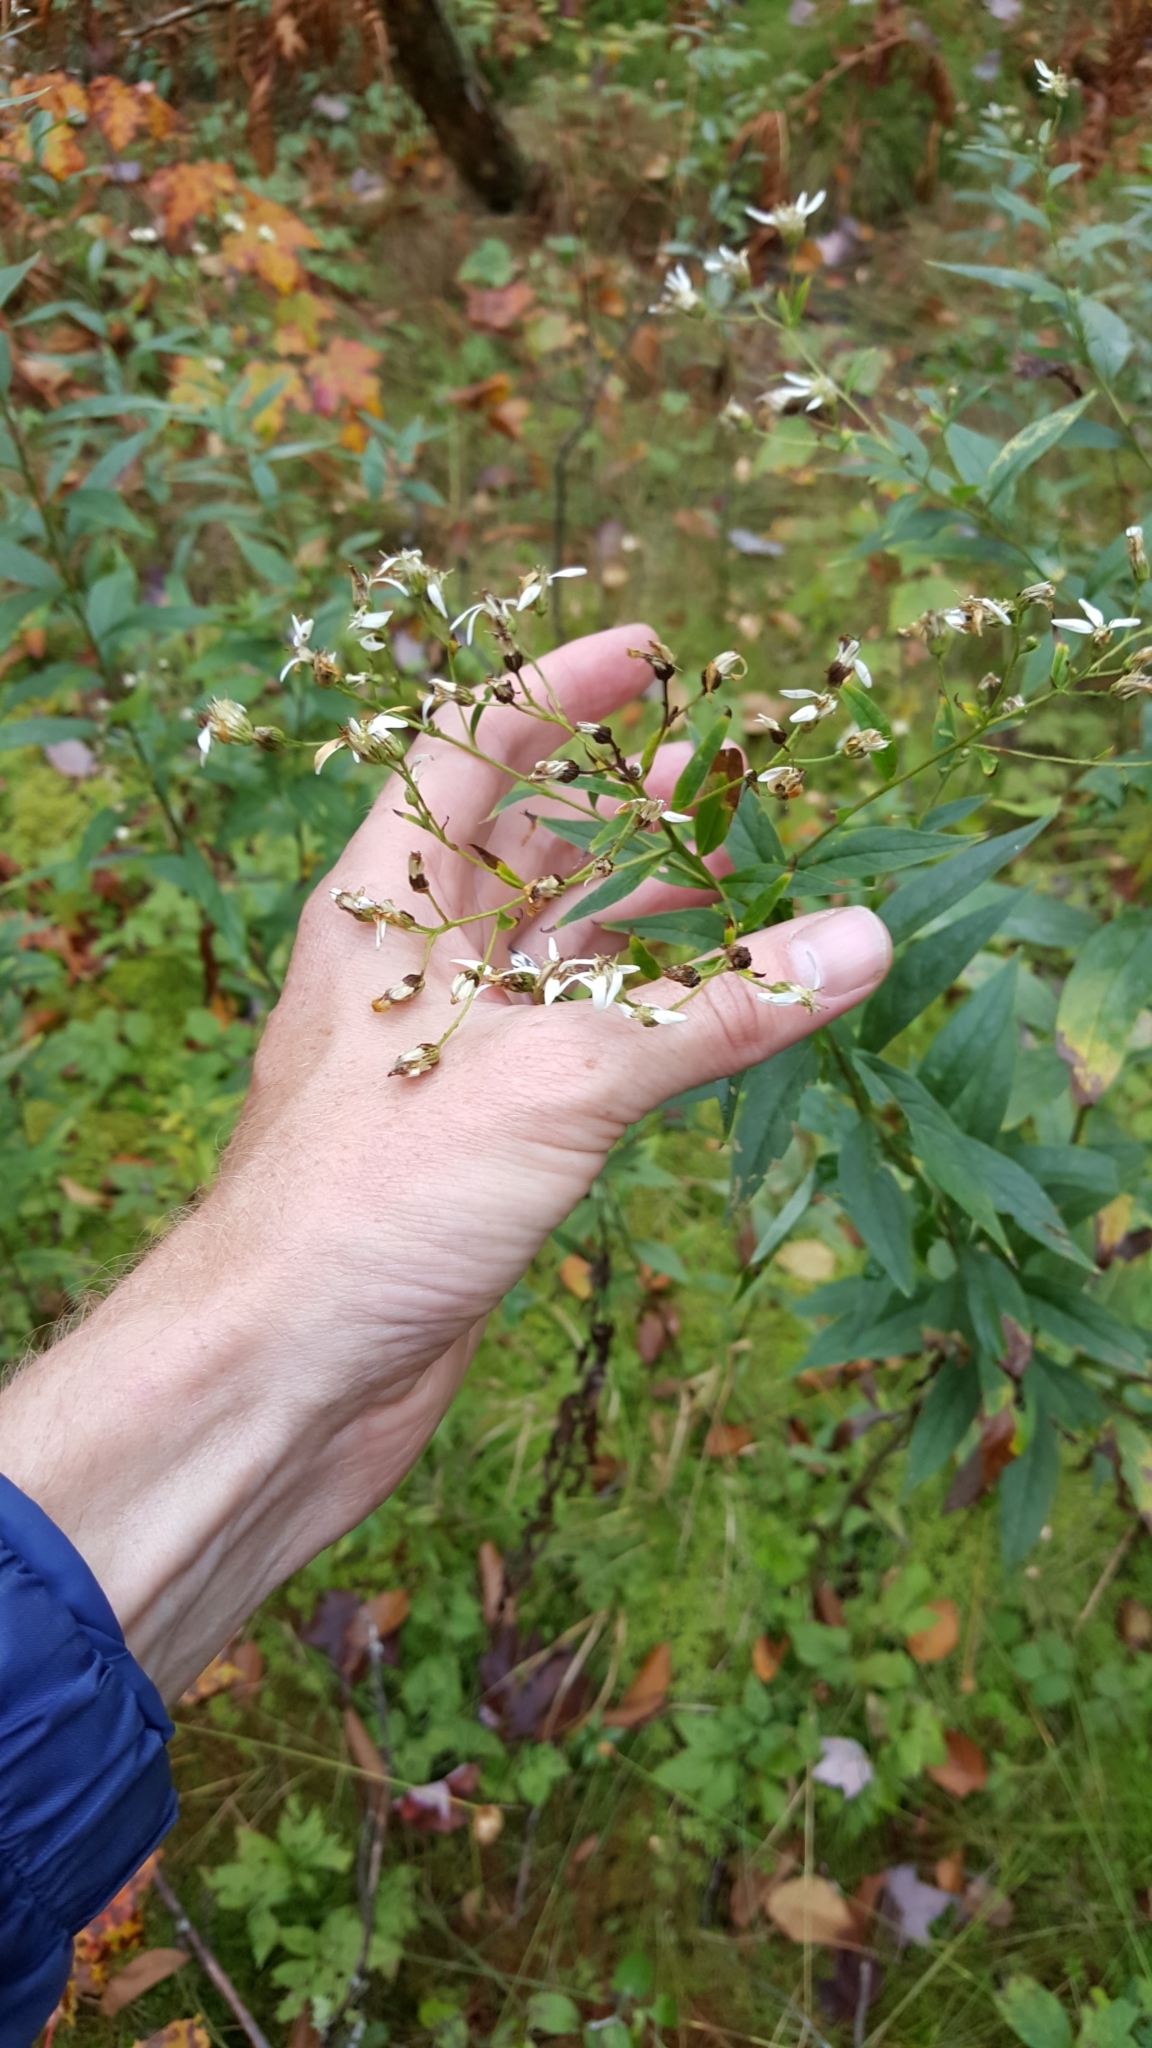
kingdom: Plantae
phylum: Tracheophyta
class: Magnoliopsida
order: Asterales
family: Asteraceae
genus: Doellingeria
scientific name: Doellingeria umbellata
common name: Flat-top white aster
